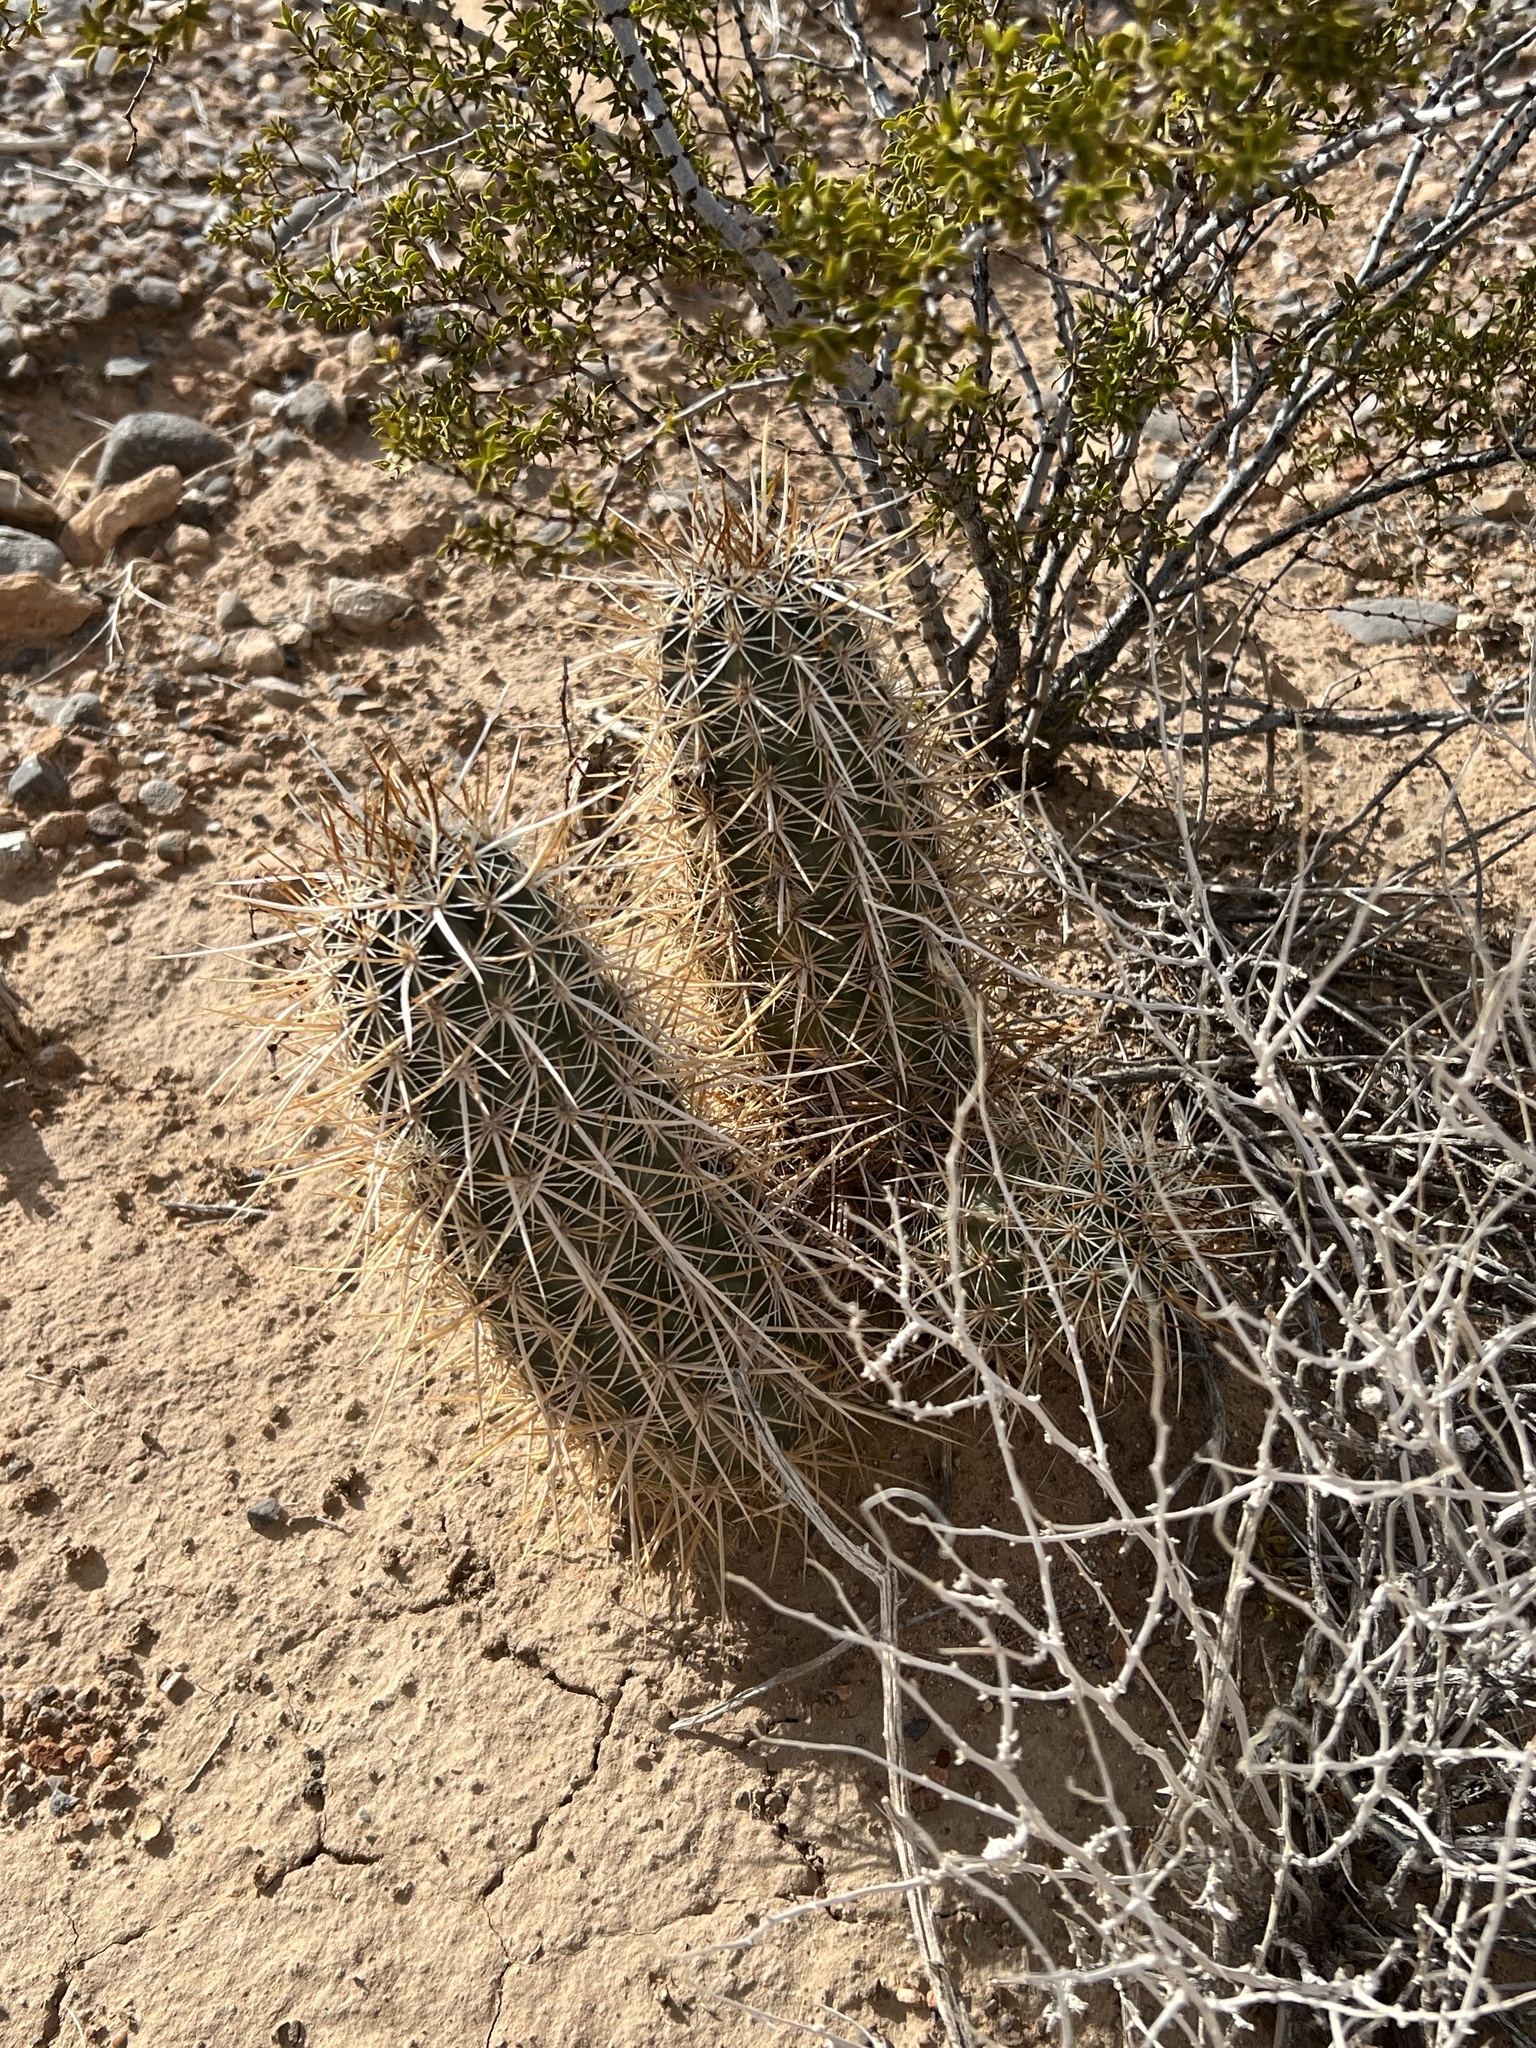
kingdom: Plantae
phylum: Tracheophyta
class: Magnoliopsida
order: Caryophyllales
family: Cactaceae
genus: Echinocereus
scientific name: Echinocereus engelmannii
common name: Engelmann's hedgehog cactus
